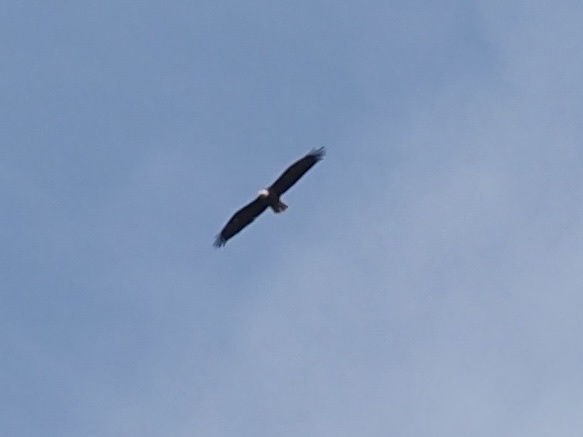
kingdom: Animalia
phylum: Chordata
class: Aves
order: Accipitriformes
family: Accipitridae
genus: Haliaeetus
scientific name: Haliaeetus leucocephalus
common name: Bald eagle
